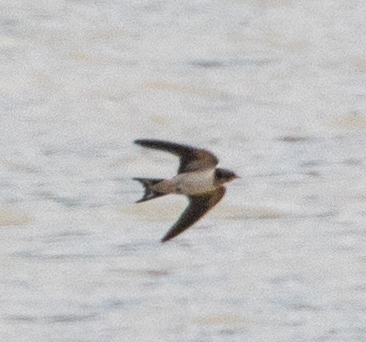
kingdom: Animalia
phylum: Chordata
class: Aves
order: Passeriformes
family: Hirundinidae
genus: Hirundo
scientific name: Hirundo rustica
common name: Barn swallow
